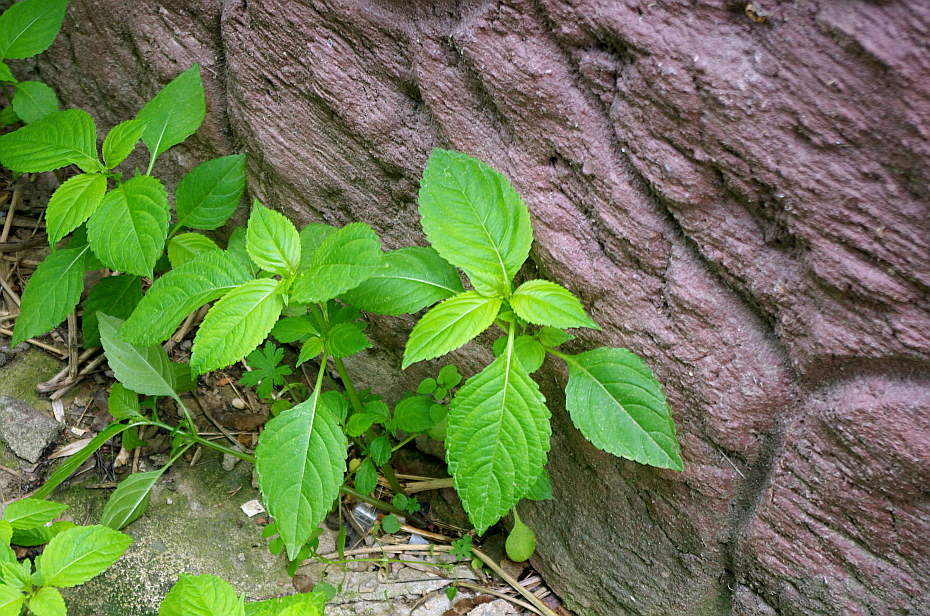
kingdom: Plantae
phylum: Tracheophyta
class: Magnoliopsida
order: Ericales
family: Balsaminaceae
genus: Impatiens
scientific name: Impatiens parviflora
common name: Small balsam
